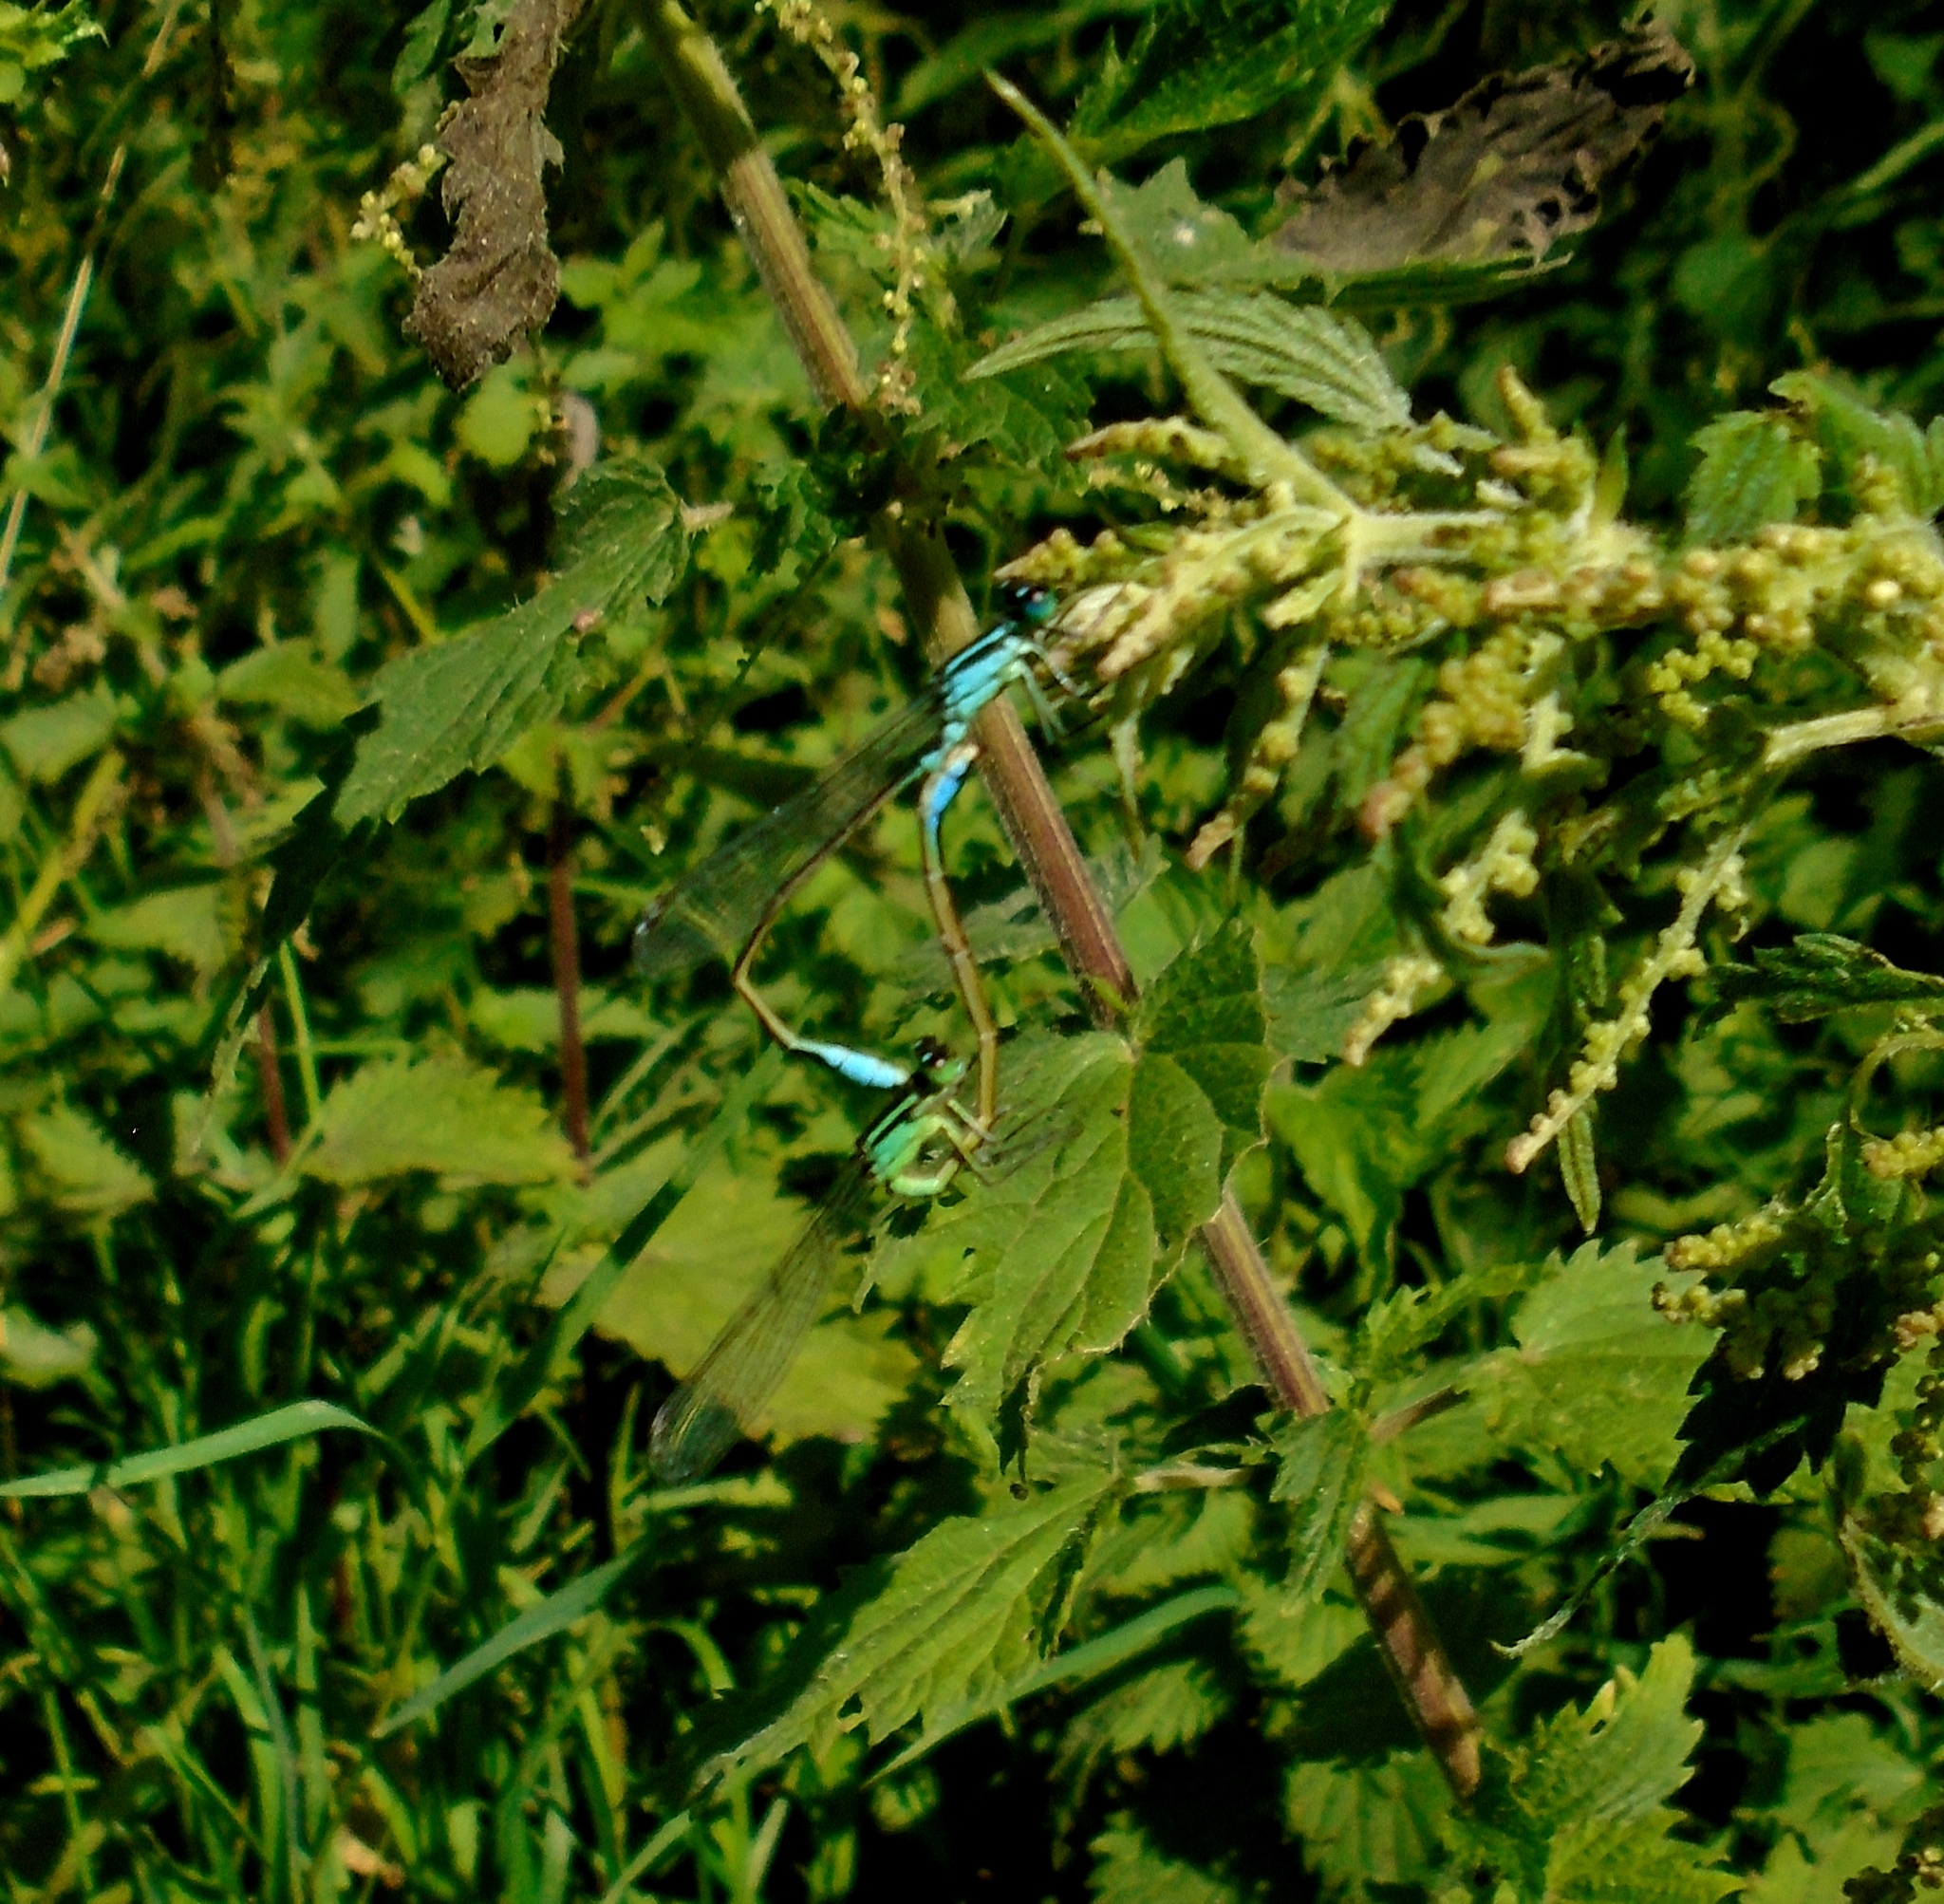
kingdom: Animalia
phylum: Arthropoda
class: Insecta
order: Odonata
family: Coenagrionidae
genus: Ischnura
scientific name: Ischnura elegans
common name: Blue-tailed damselfly
